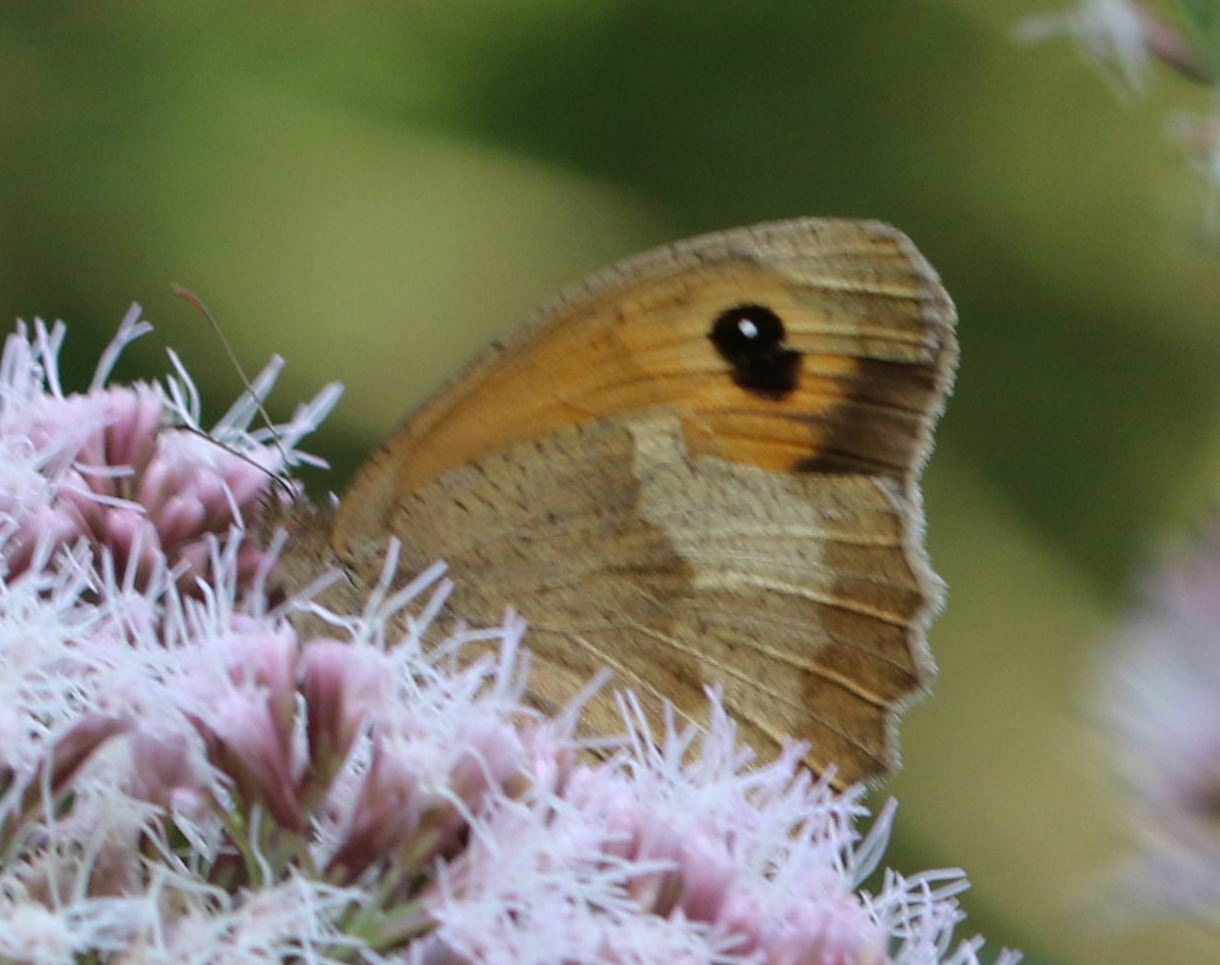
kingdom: Animalia
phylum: Arthropoda
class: Insecta
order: Lepidoptera
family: Nymphalidae
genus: Maniola
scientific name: Maniola jurtina
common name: Meadow brown
